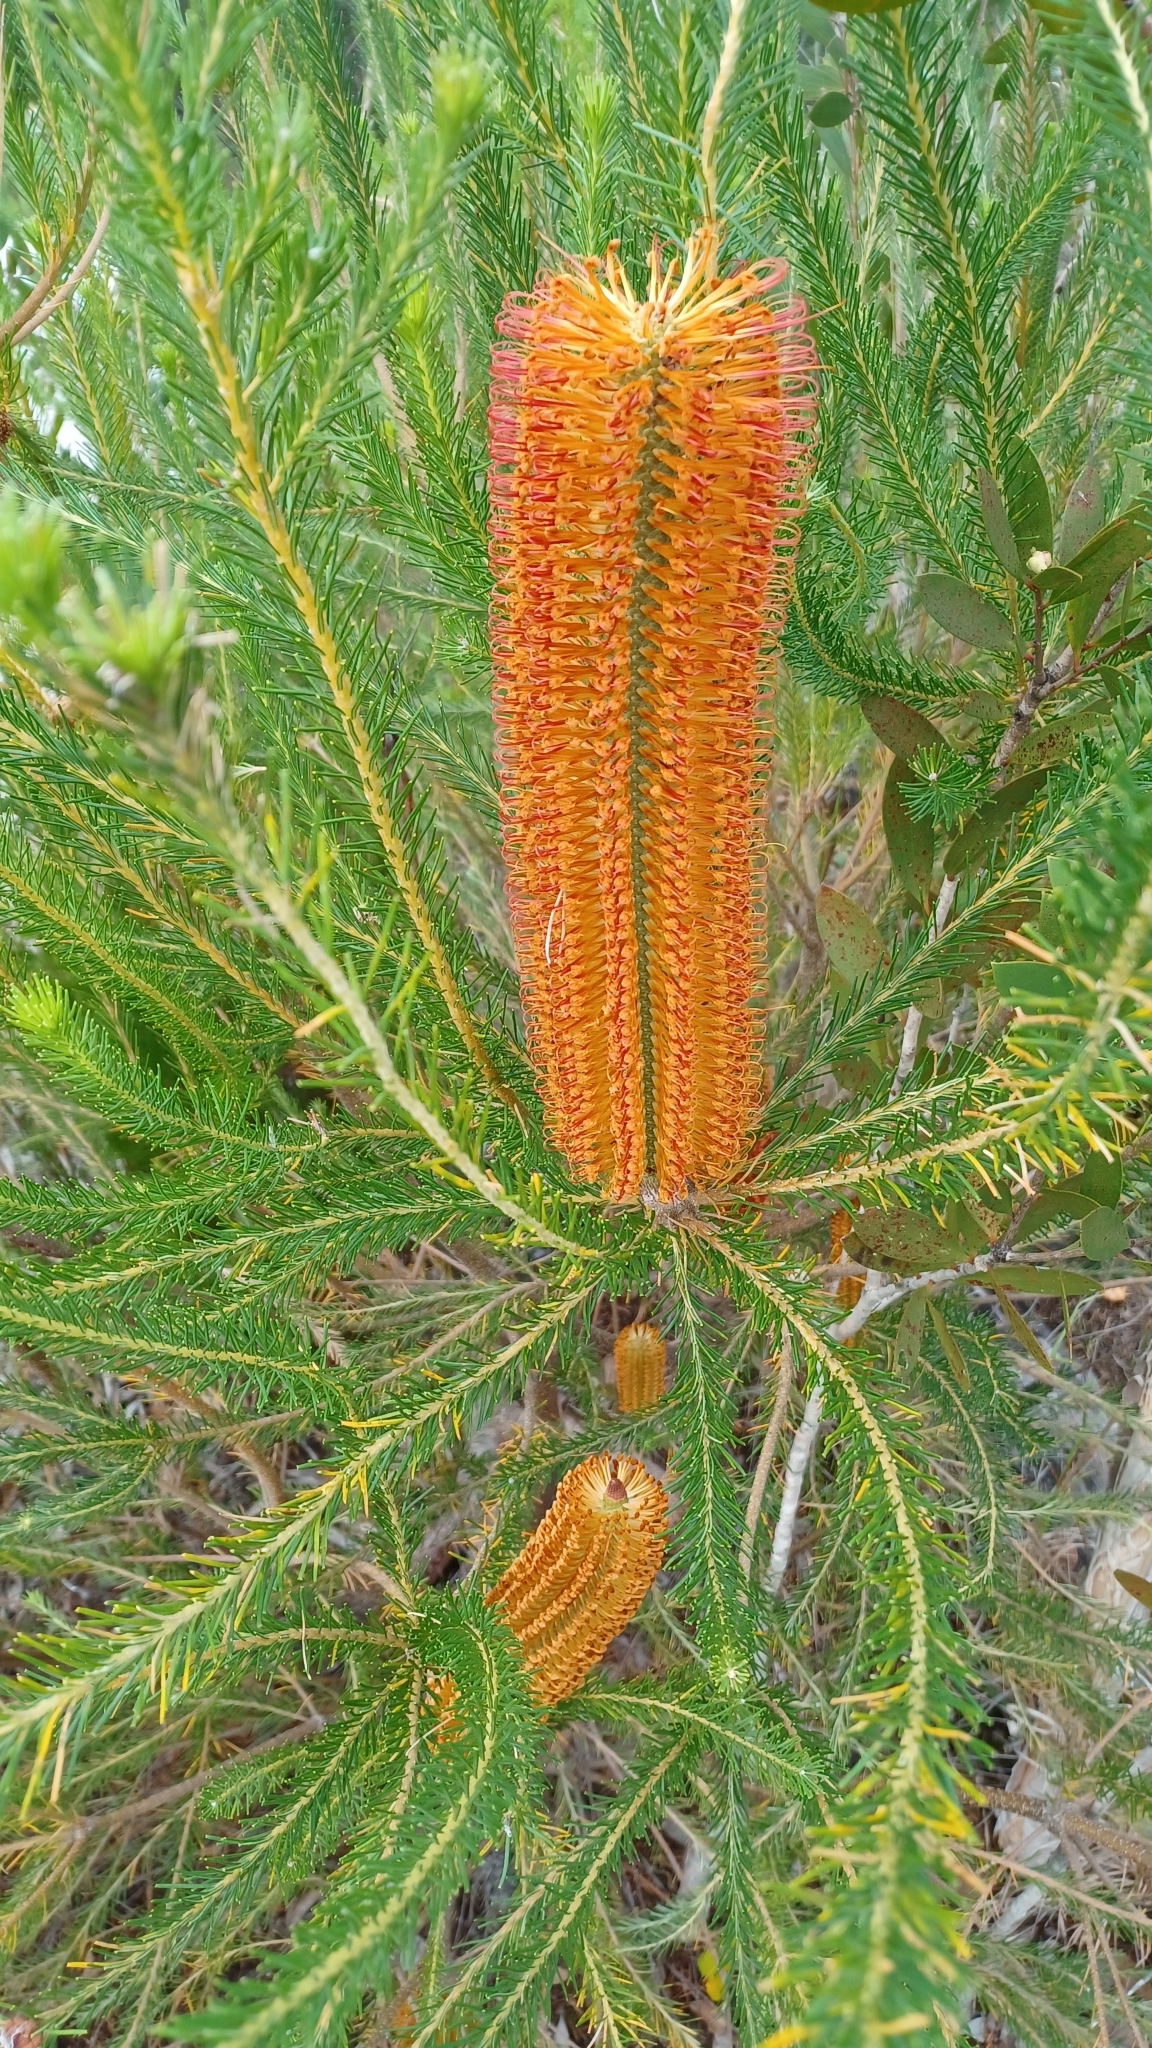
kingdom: Plantae
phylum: Tracheophyta
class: Magnoliopsida
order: Proteales
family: Proteaceae
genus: Banksia
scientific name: Banksia ericifolia
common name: Heath-leaf banksia
